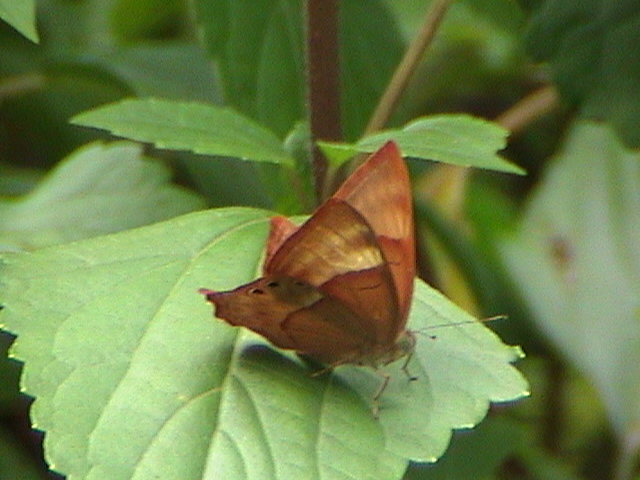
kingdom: Animalia
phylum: Arthropoda
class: Insecta
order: Lepidoptera
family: Lycaenidae
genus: Abisara
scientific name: Abisara bifasciata
